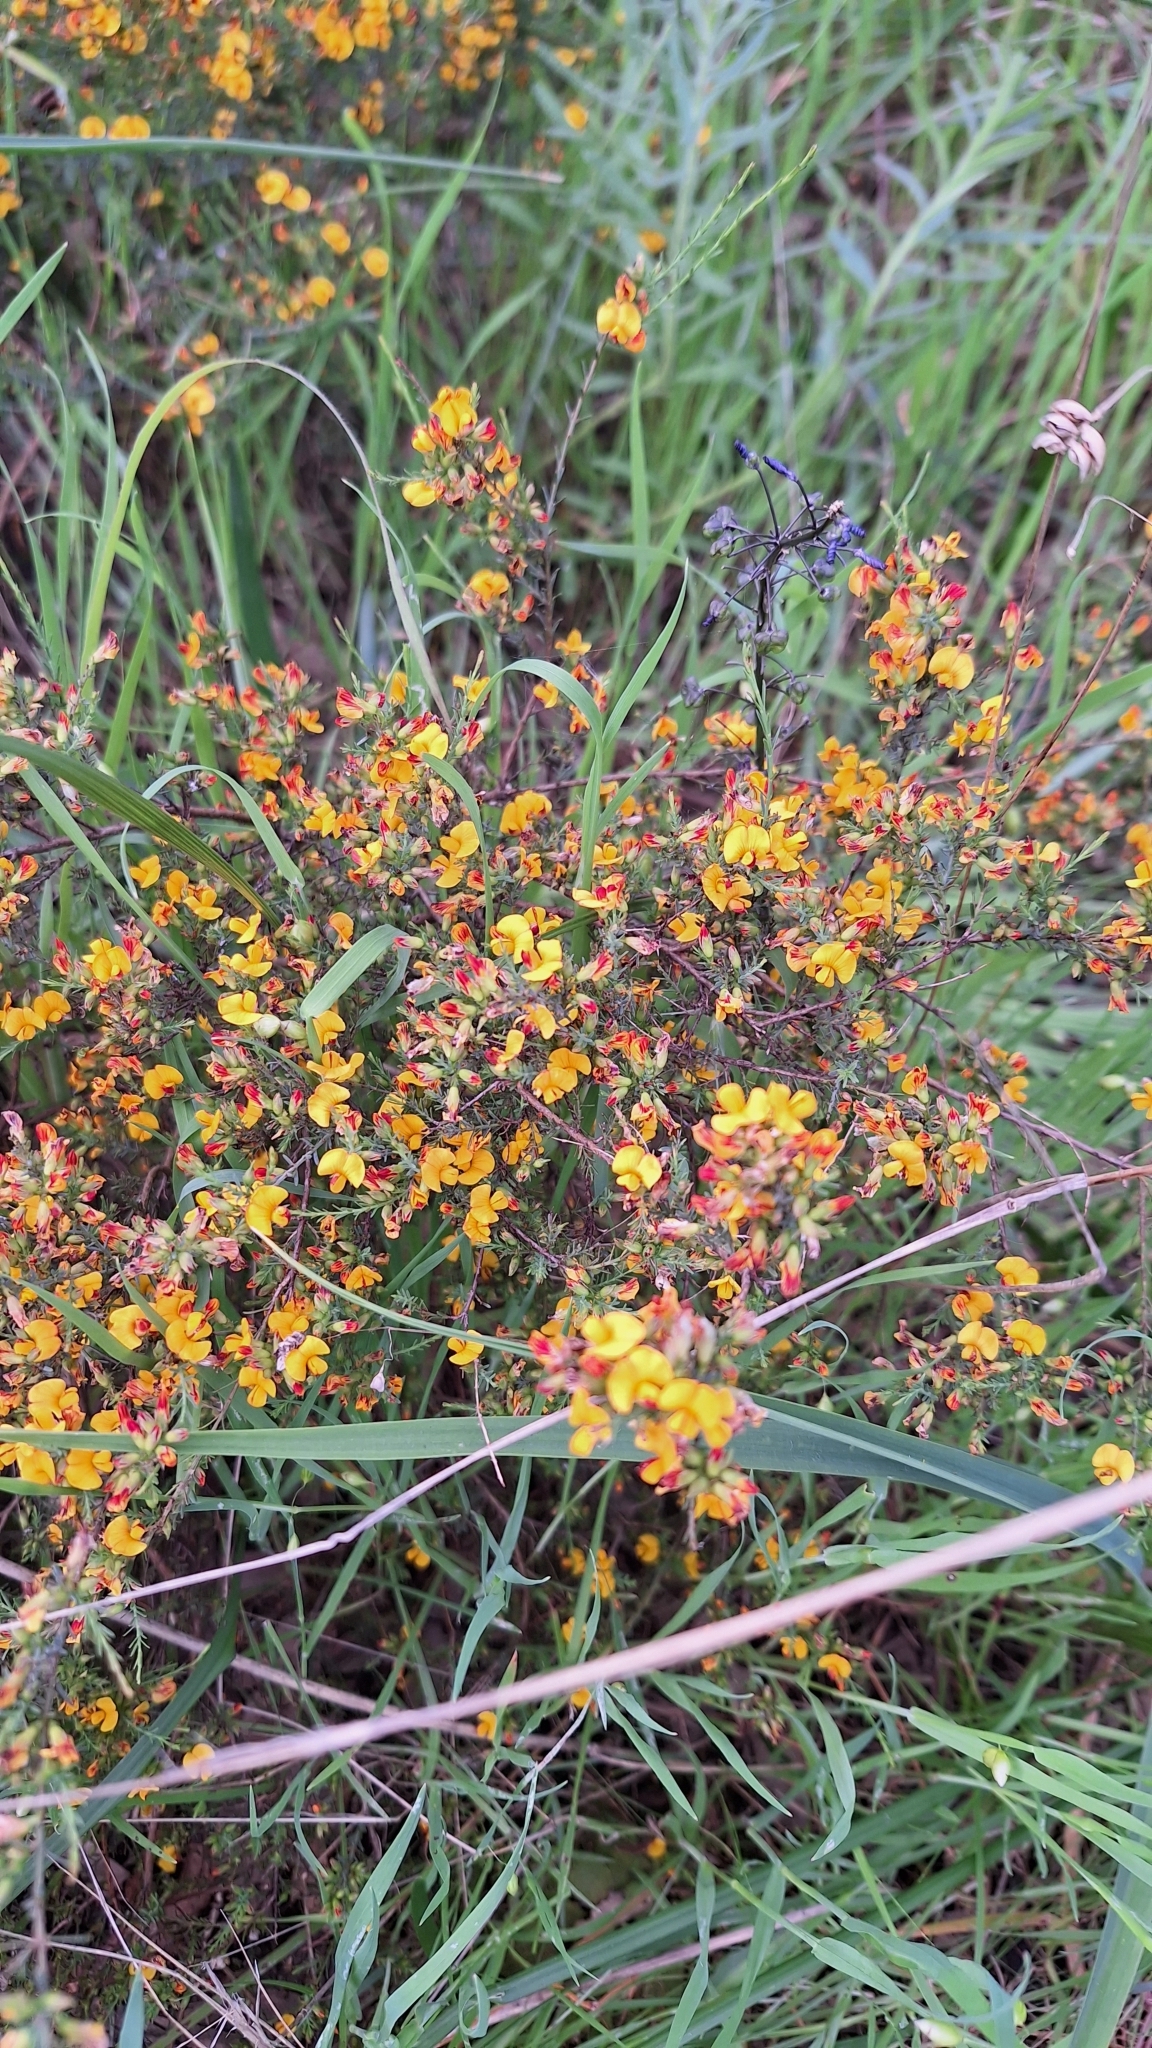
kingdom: Plantae
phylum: Tracheophyta
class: Magnoliopsida
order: Fabales
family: Fabaceae
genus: Eutaxia
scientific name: Eutaxia microphylla
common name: Mallee bush-pea
